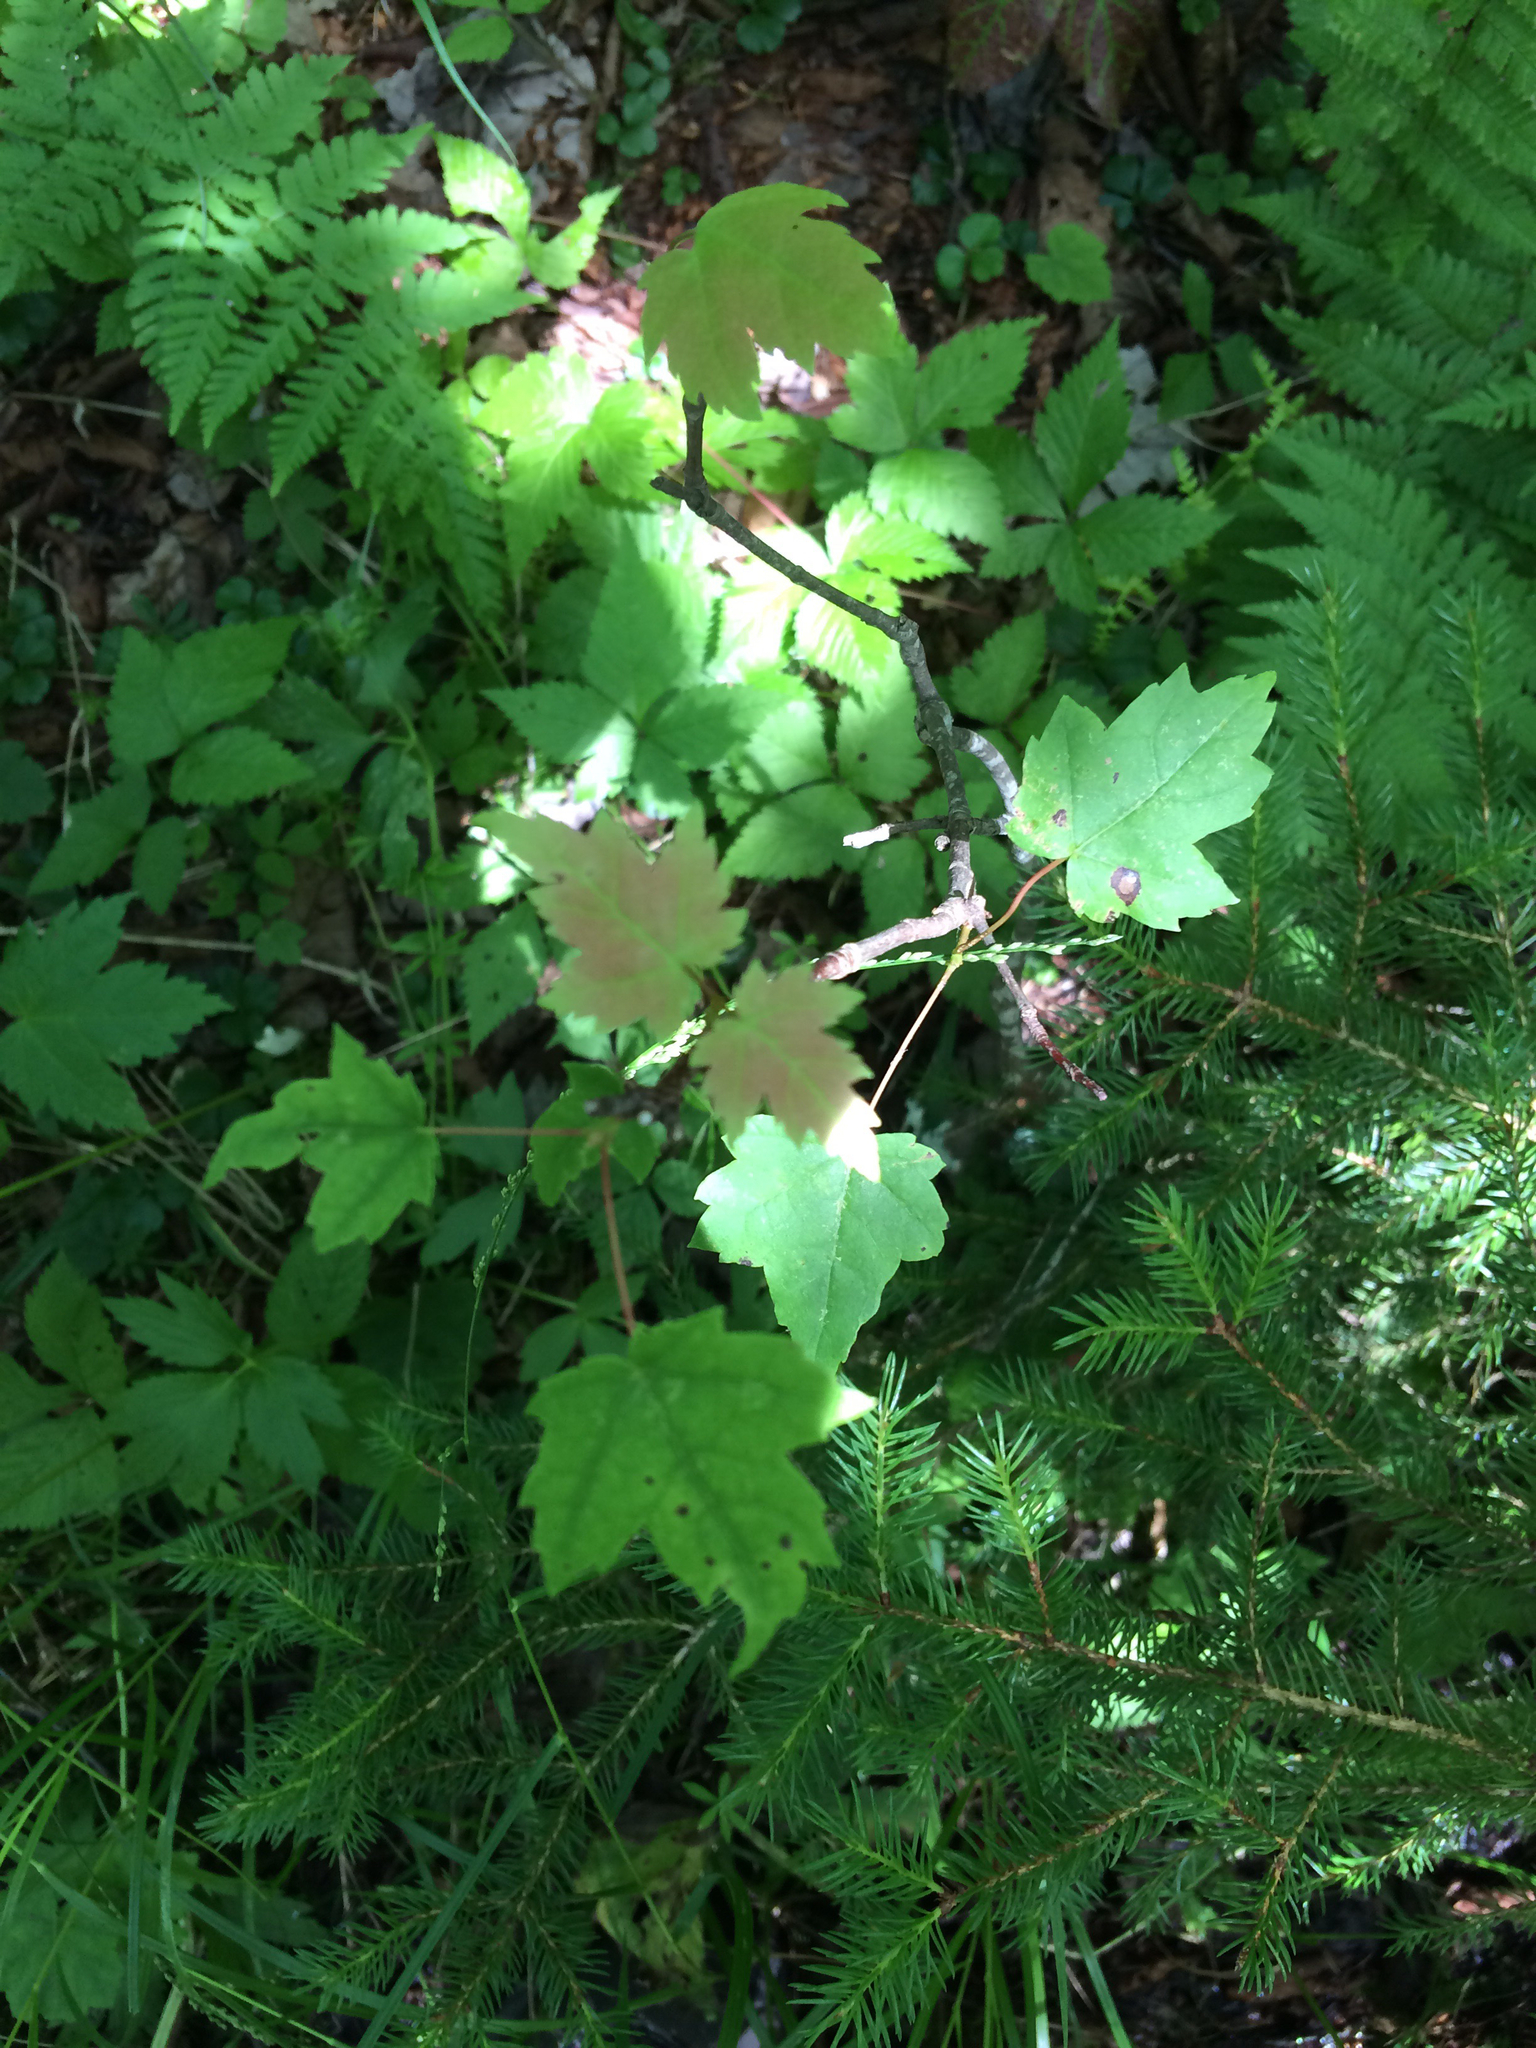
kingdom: Plantae
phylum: Tracheophyta
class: Magnoliopsida
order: Sapindales
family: Sapindaceae
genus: Acer
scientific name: Acer rubrum
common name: Red maple
